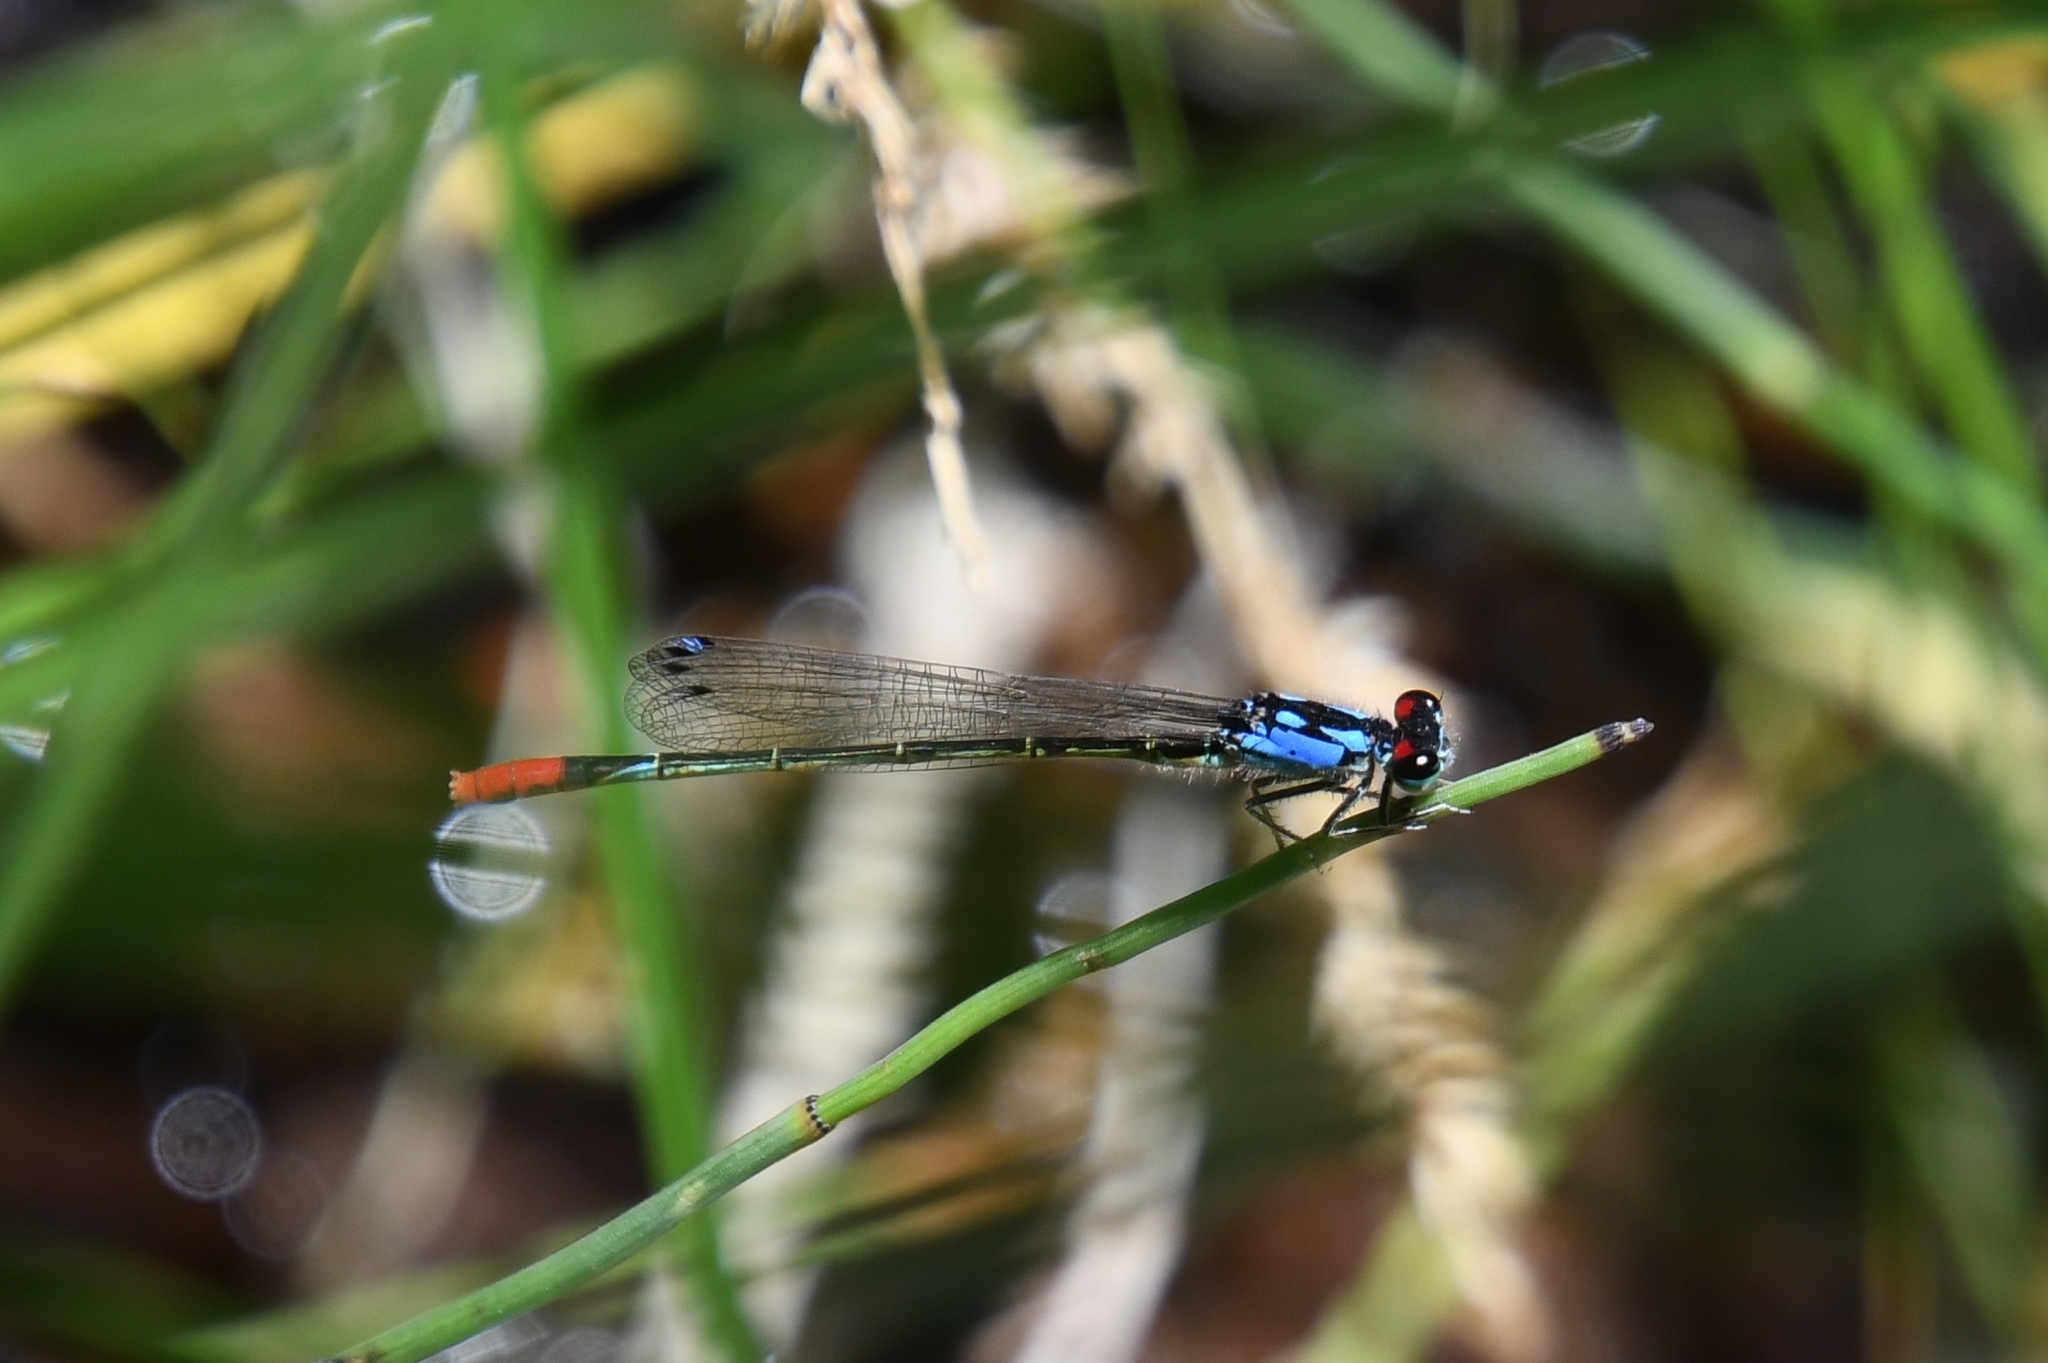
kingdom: Animalia
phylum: Arthropoda
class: Insecta
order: Odonata
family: Coenagrionidae
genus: Hesperagrion
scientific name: Hesperagrion heterodoxum
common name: Painted damsel
